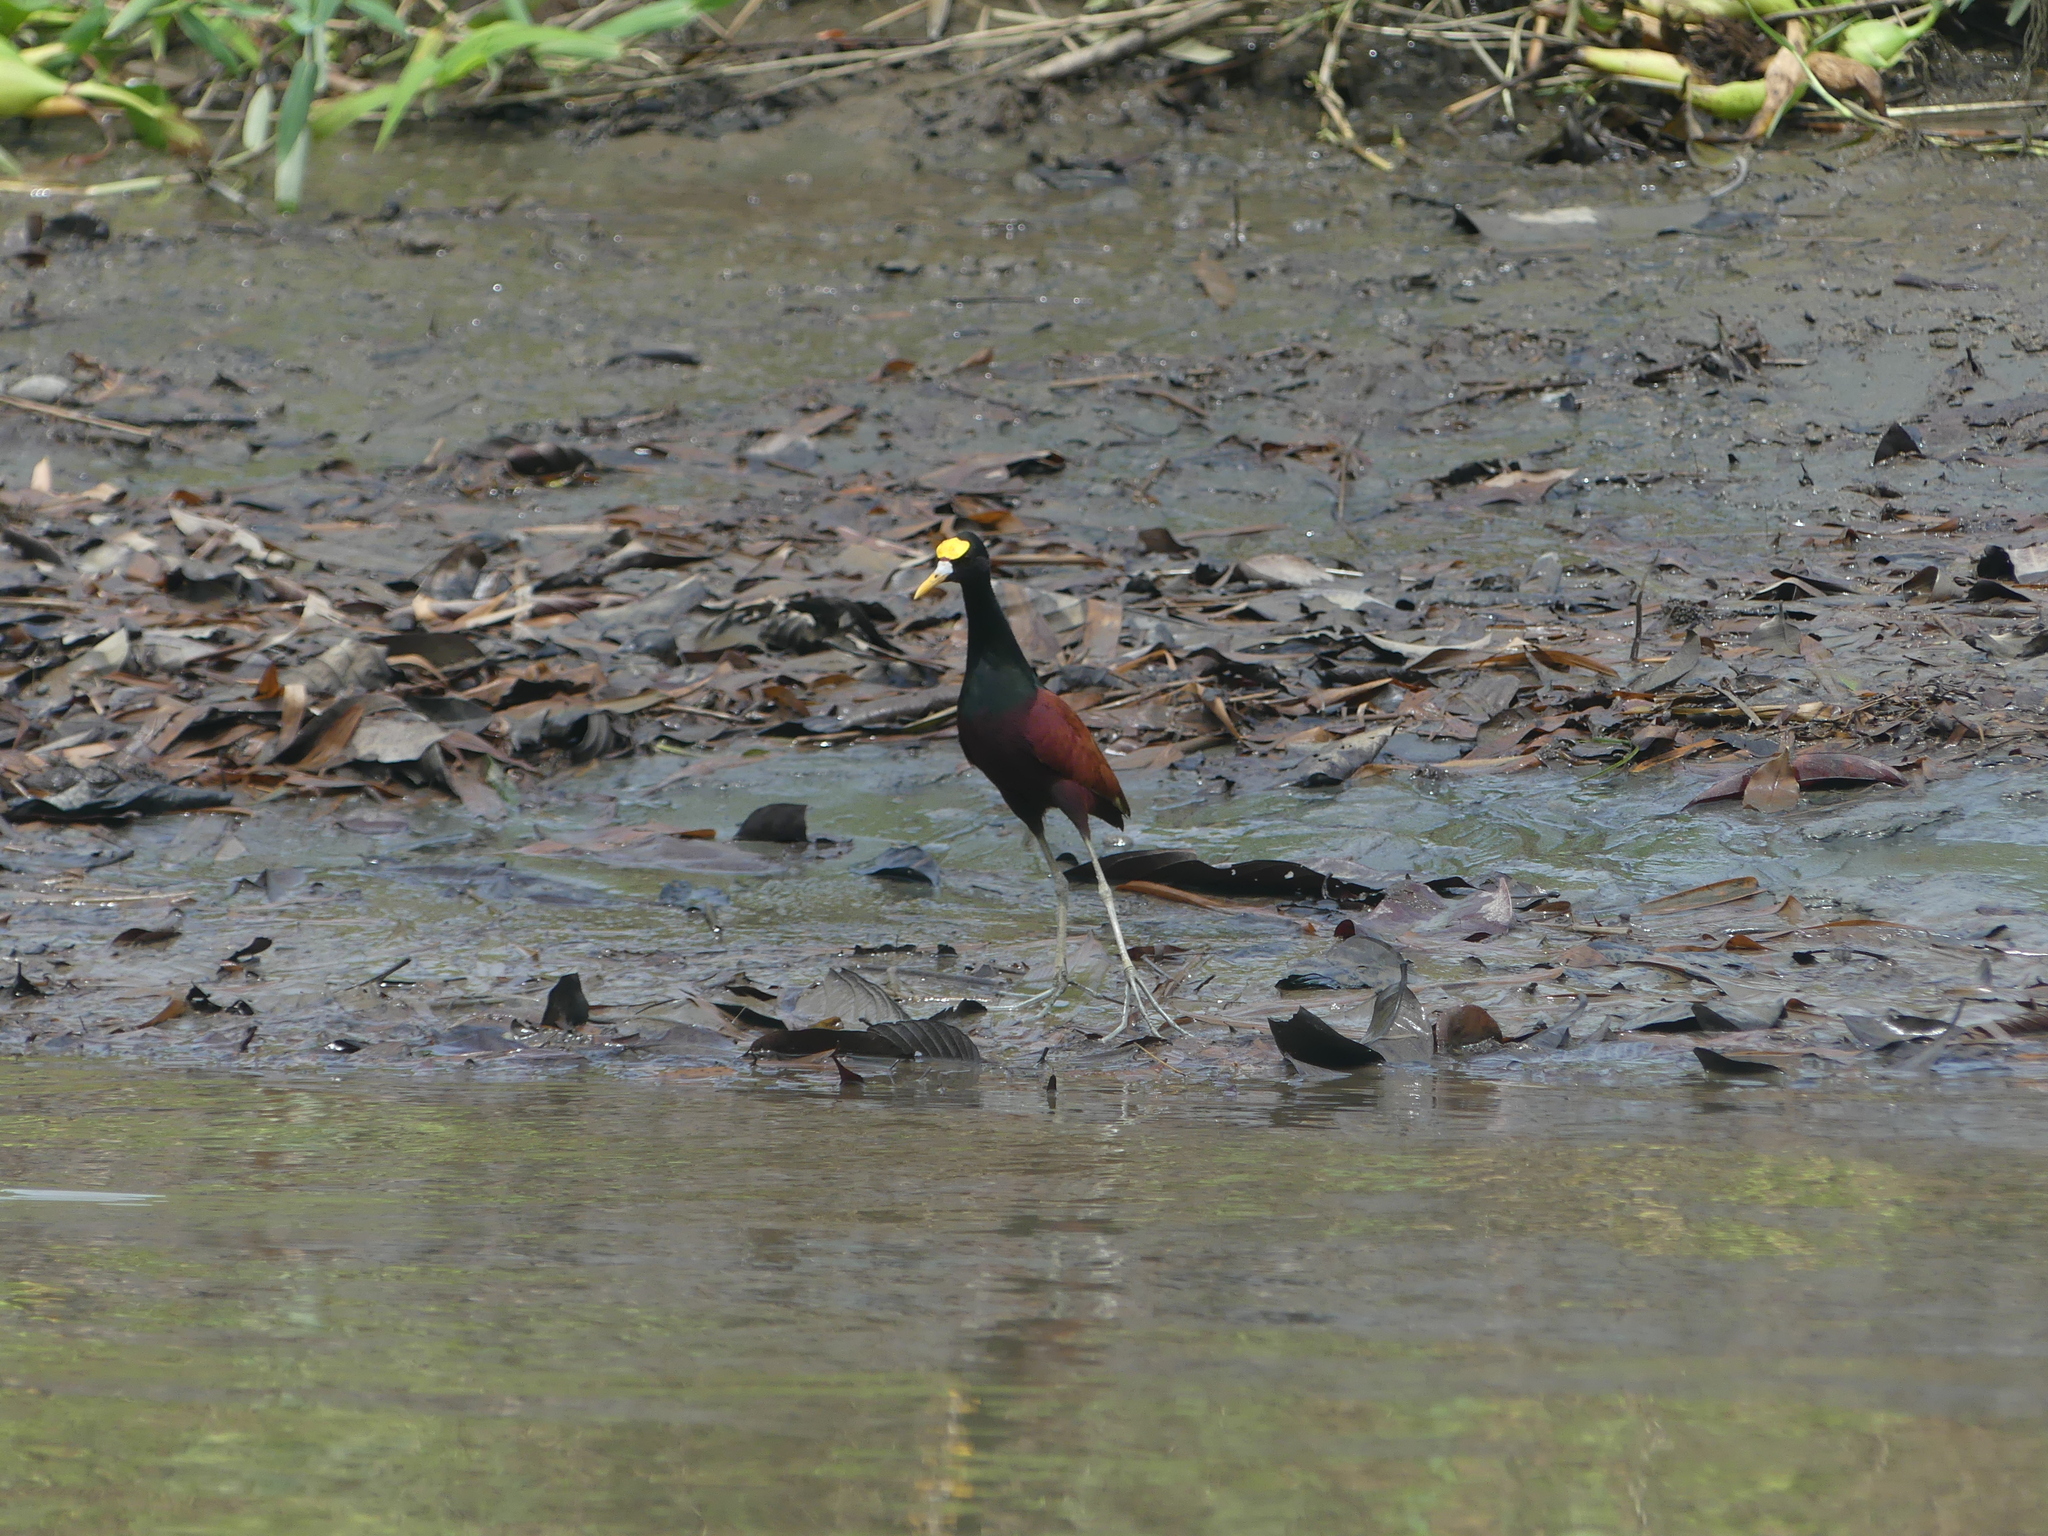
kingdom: Animalia
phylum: Chordata
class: Aves
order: Charadriiformes
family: Jacanidae
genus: Jacana
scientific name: Jacana spinosa
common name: Northern jacana
